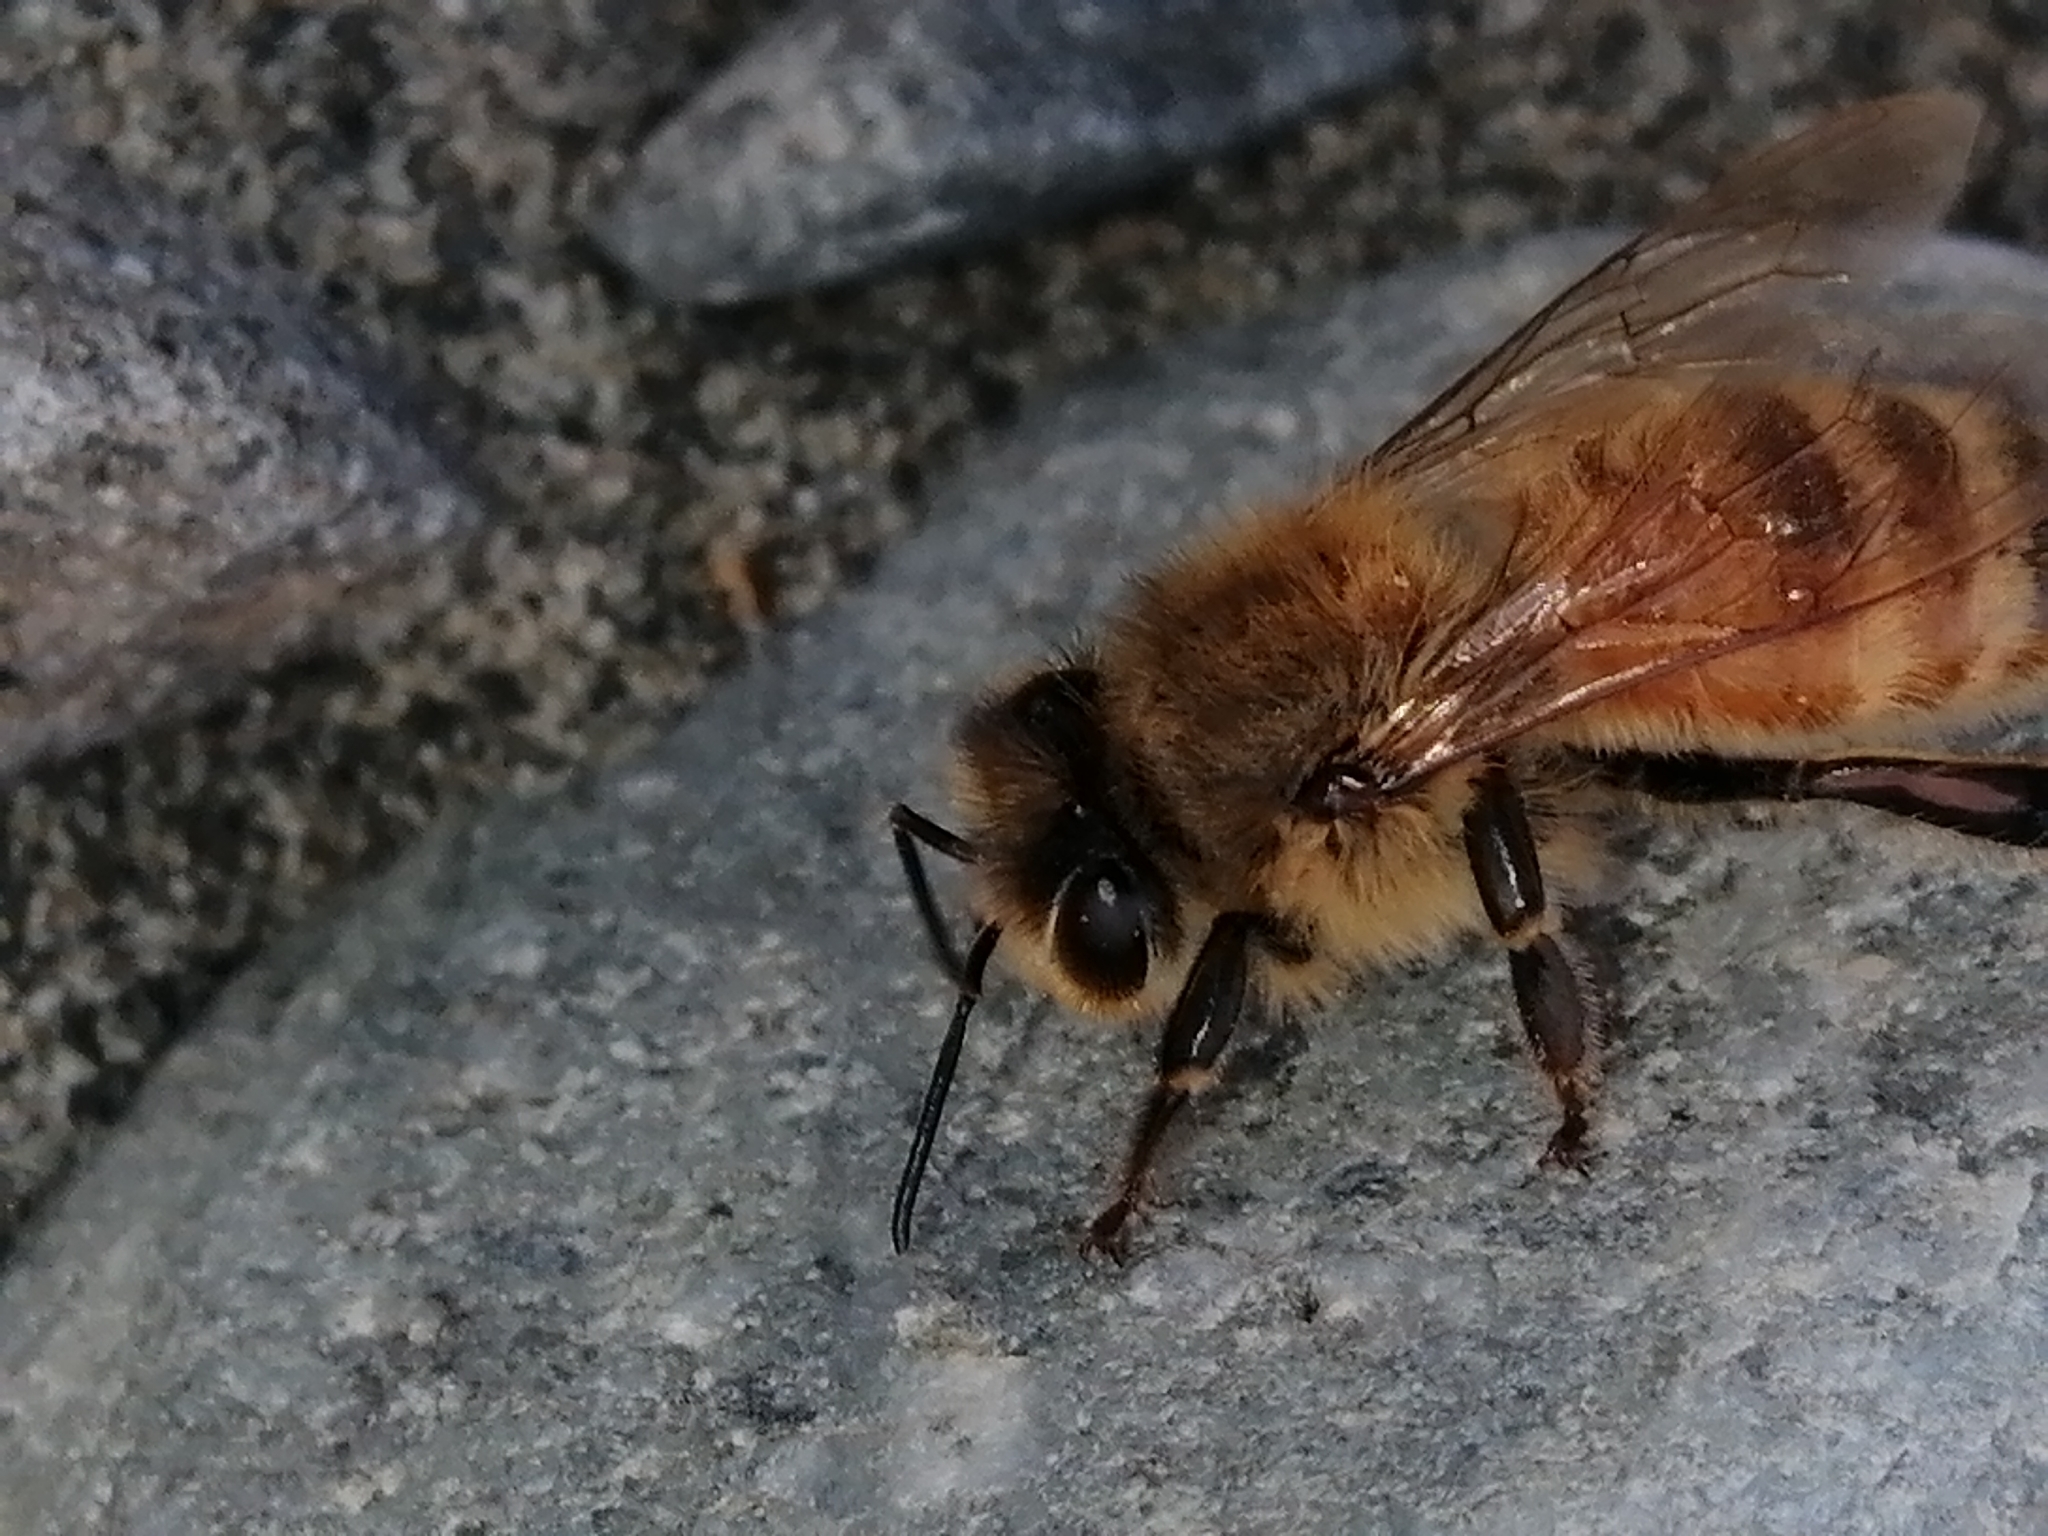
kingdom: Animalia
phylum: Arthropoda
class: Insecta
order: Hymenoptera
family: Apidae
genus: Apis
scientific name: Apis mellifera
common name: Honey bee
